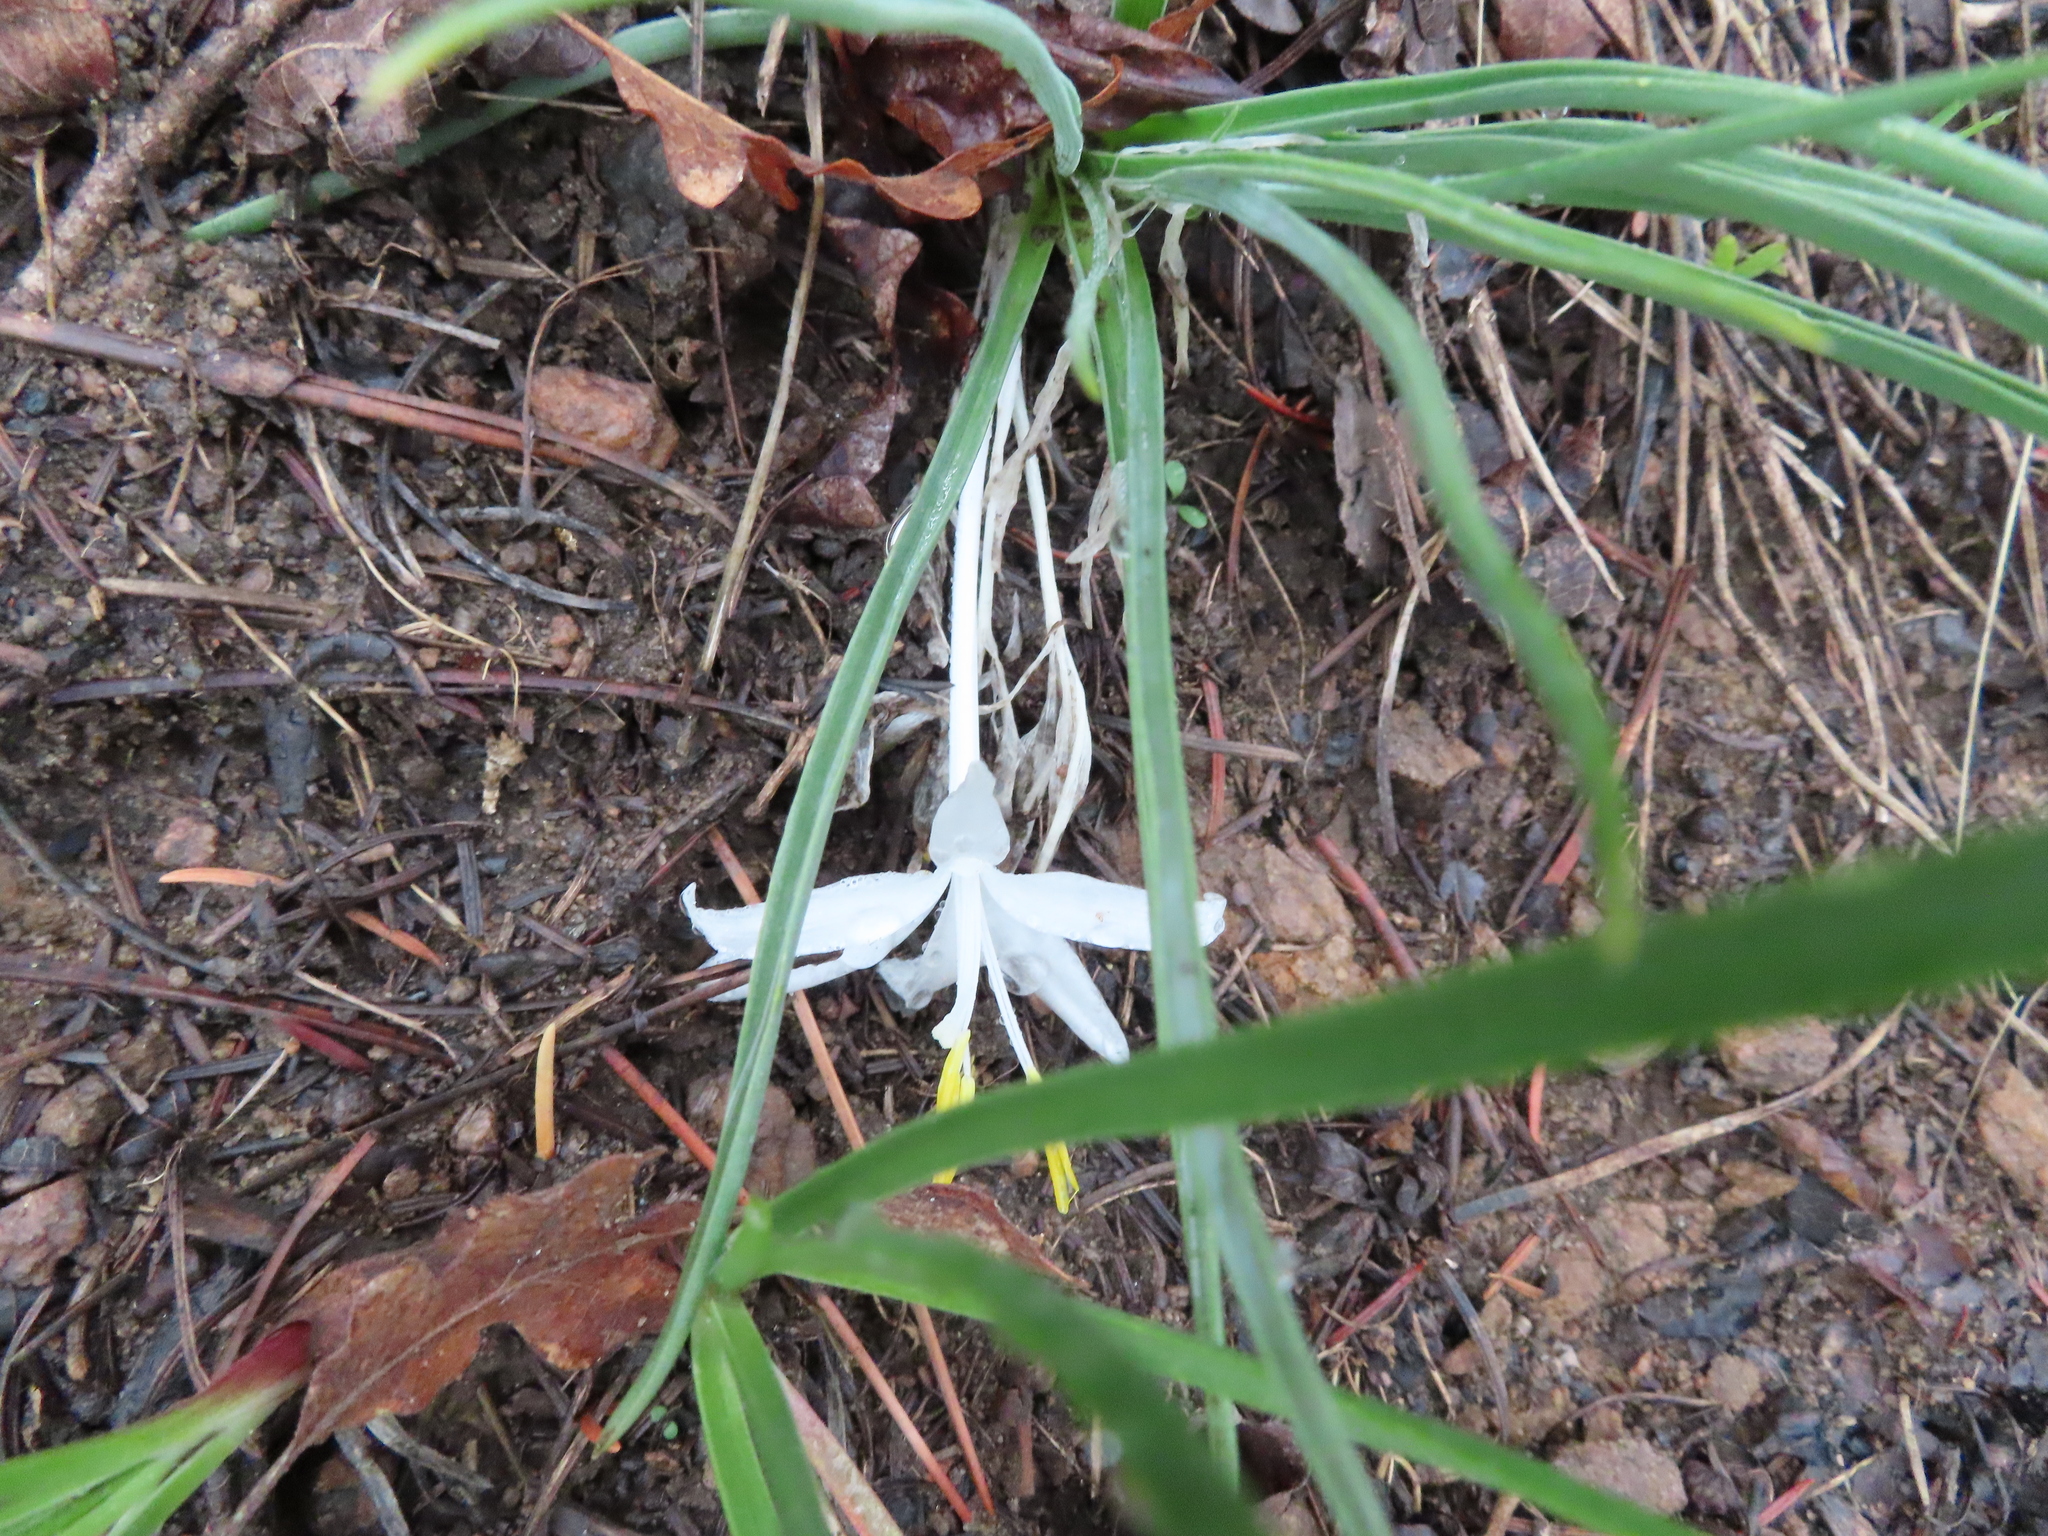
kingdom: Plantae
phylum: Tracheophyta
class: Liliopsida
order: Asparagales
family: Asparagaceae
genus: Leucocrinum
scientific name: Leucocrinum montanum
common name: Mountain-lily
